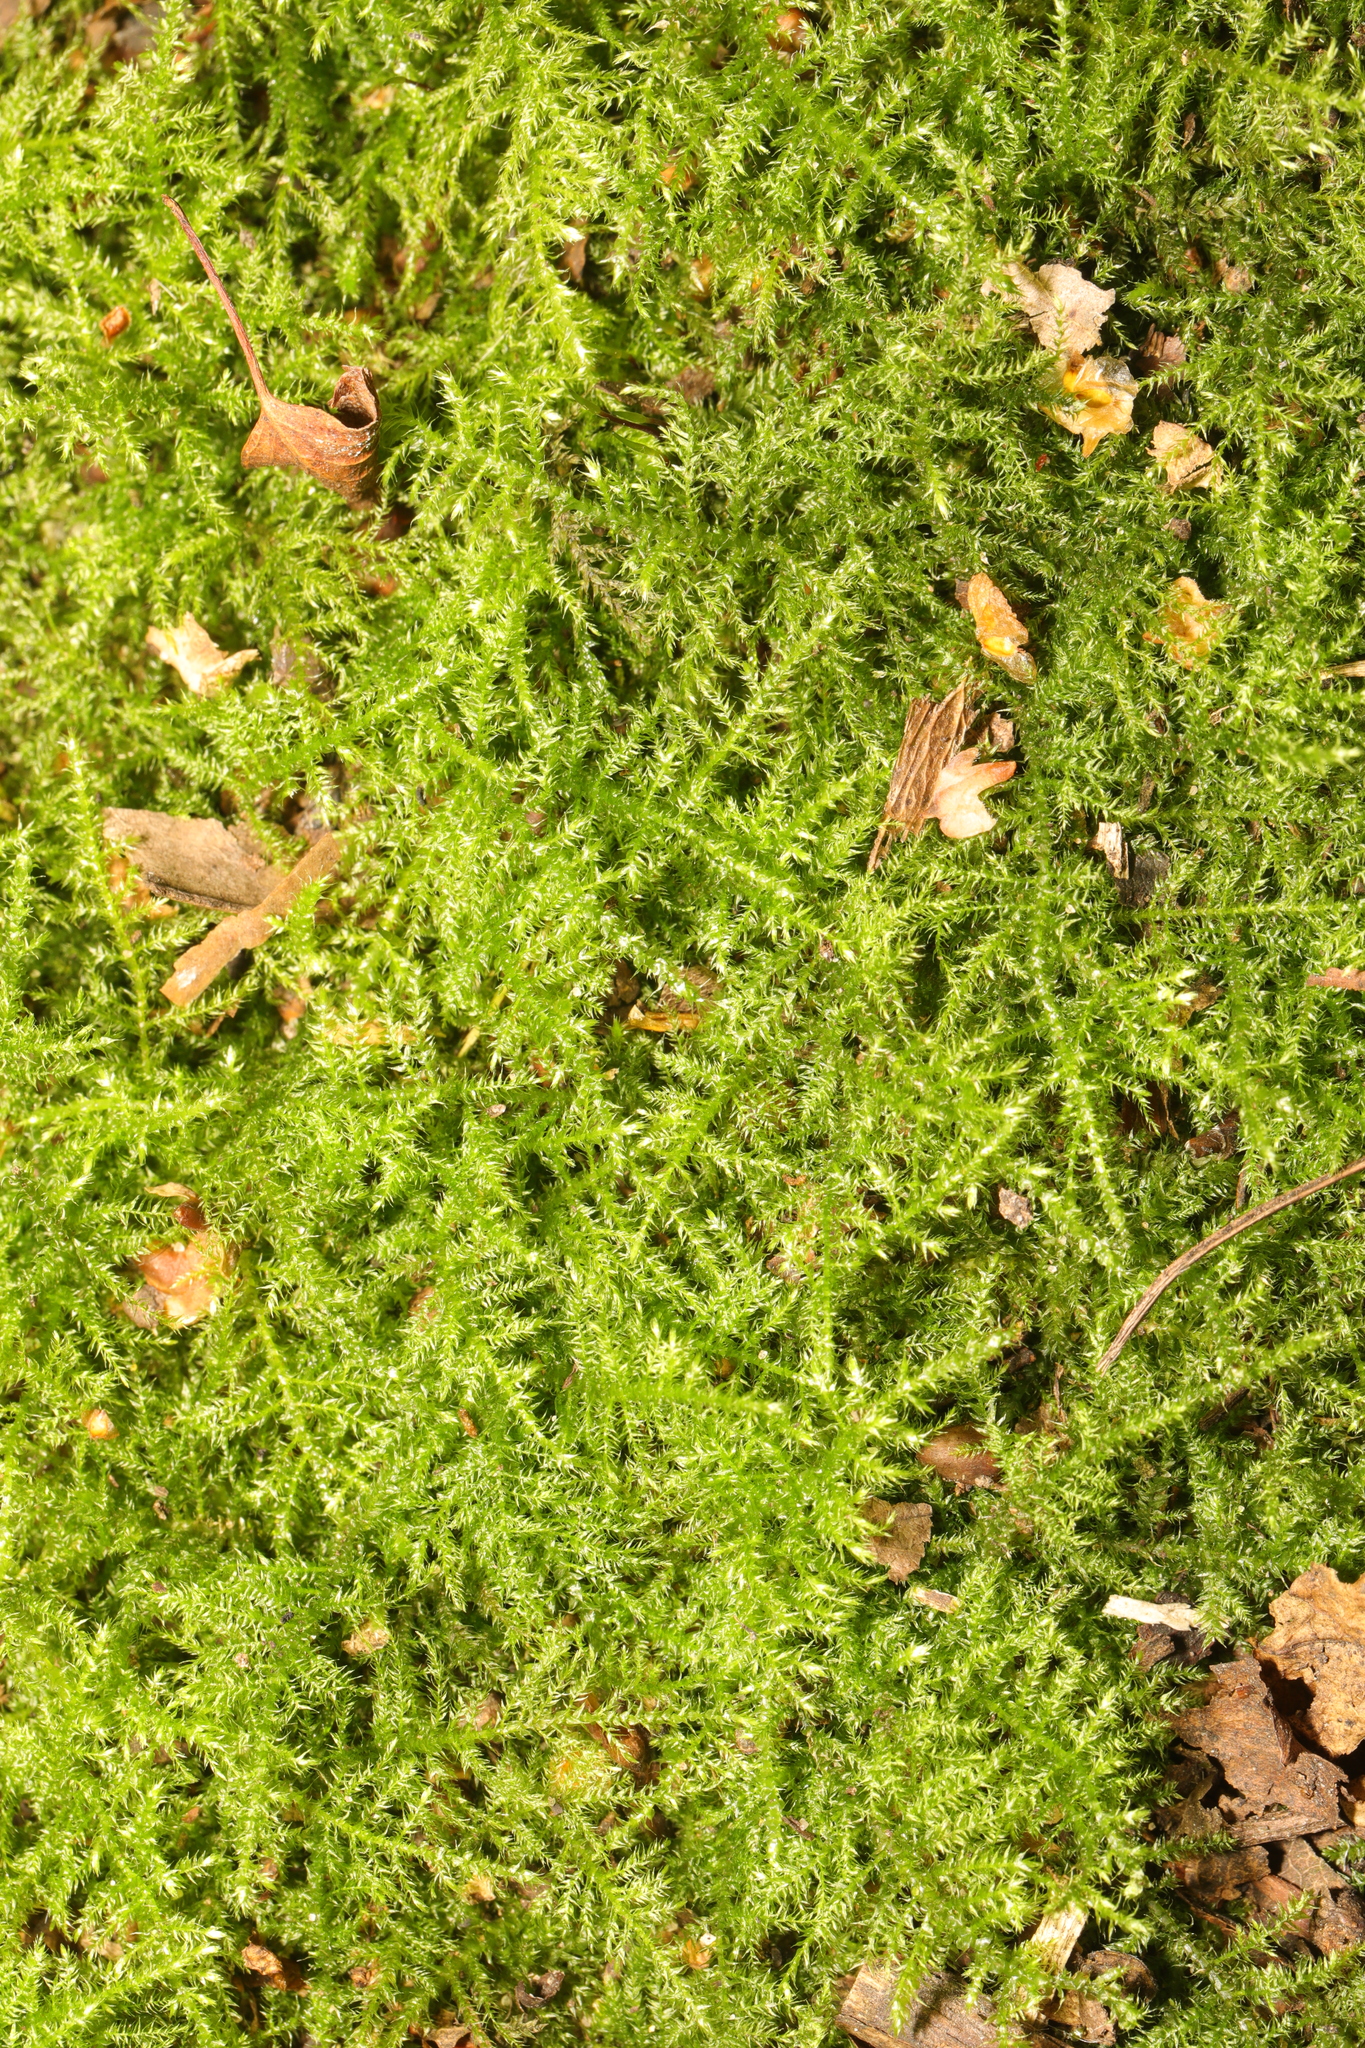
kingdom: Plantae
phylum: Bryophyta
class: Bryopsida
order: Hypnales
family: Brachytheciaceae
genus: Kindbergia
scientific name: Kindbergia praelonga
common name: Slender beaked moss
